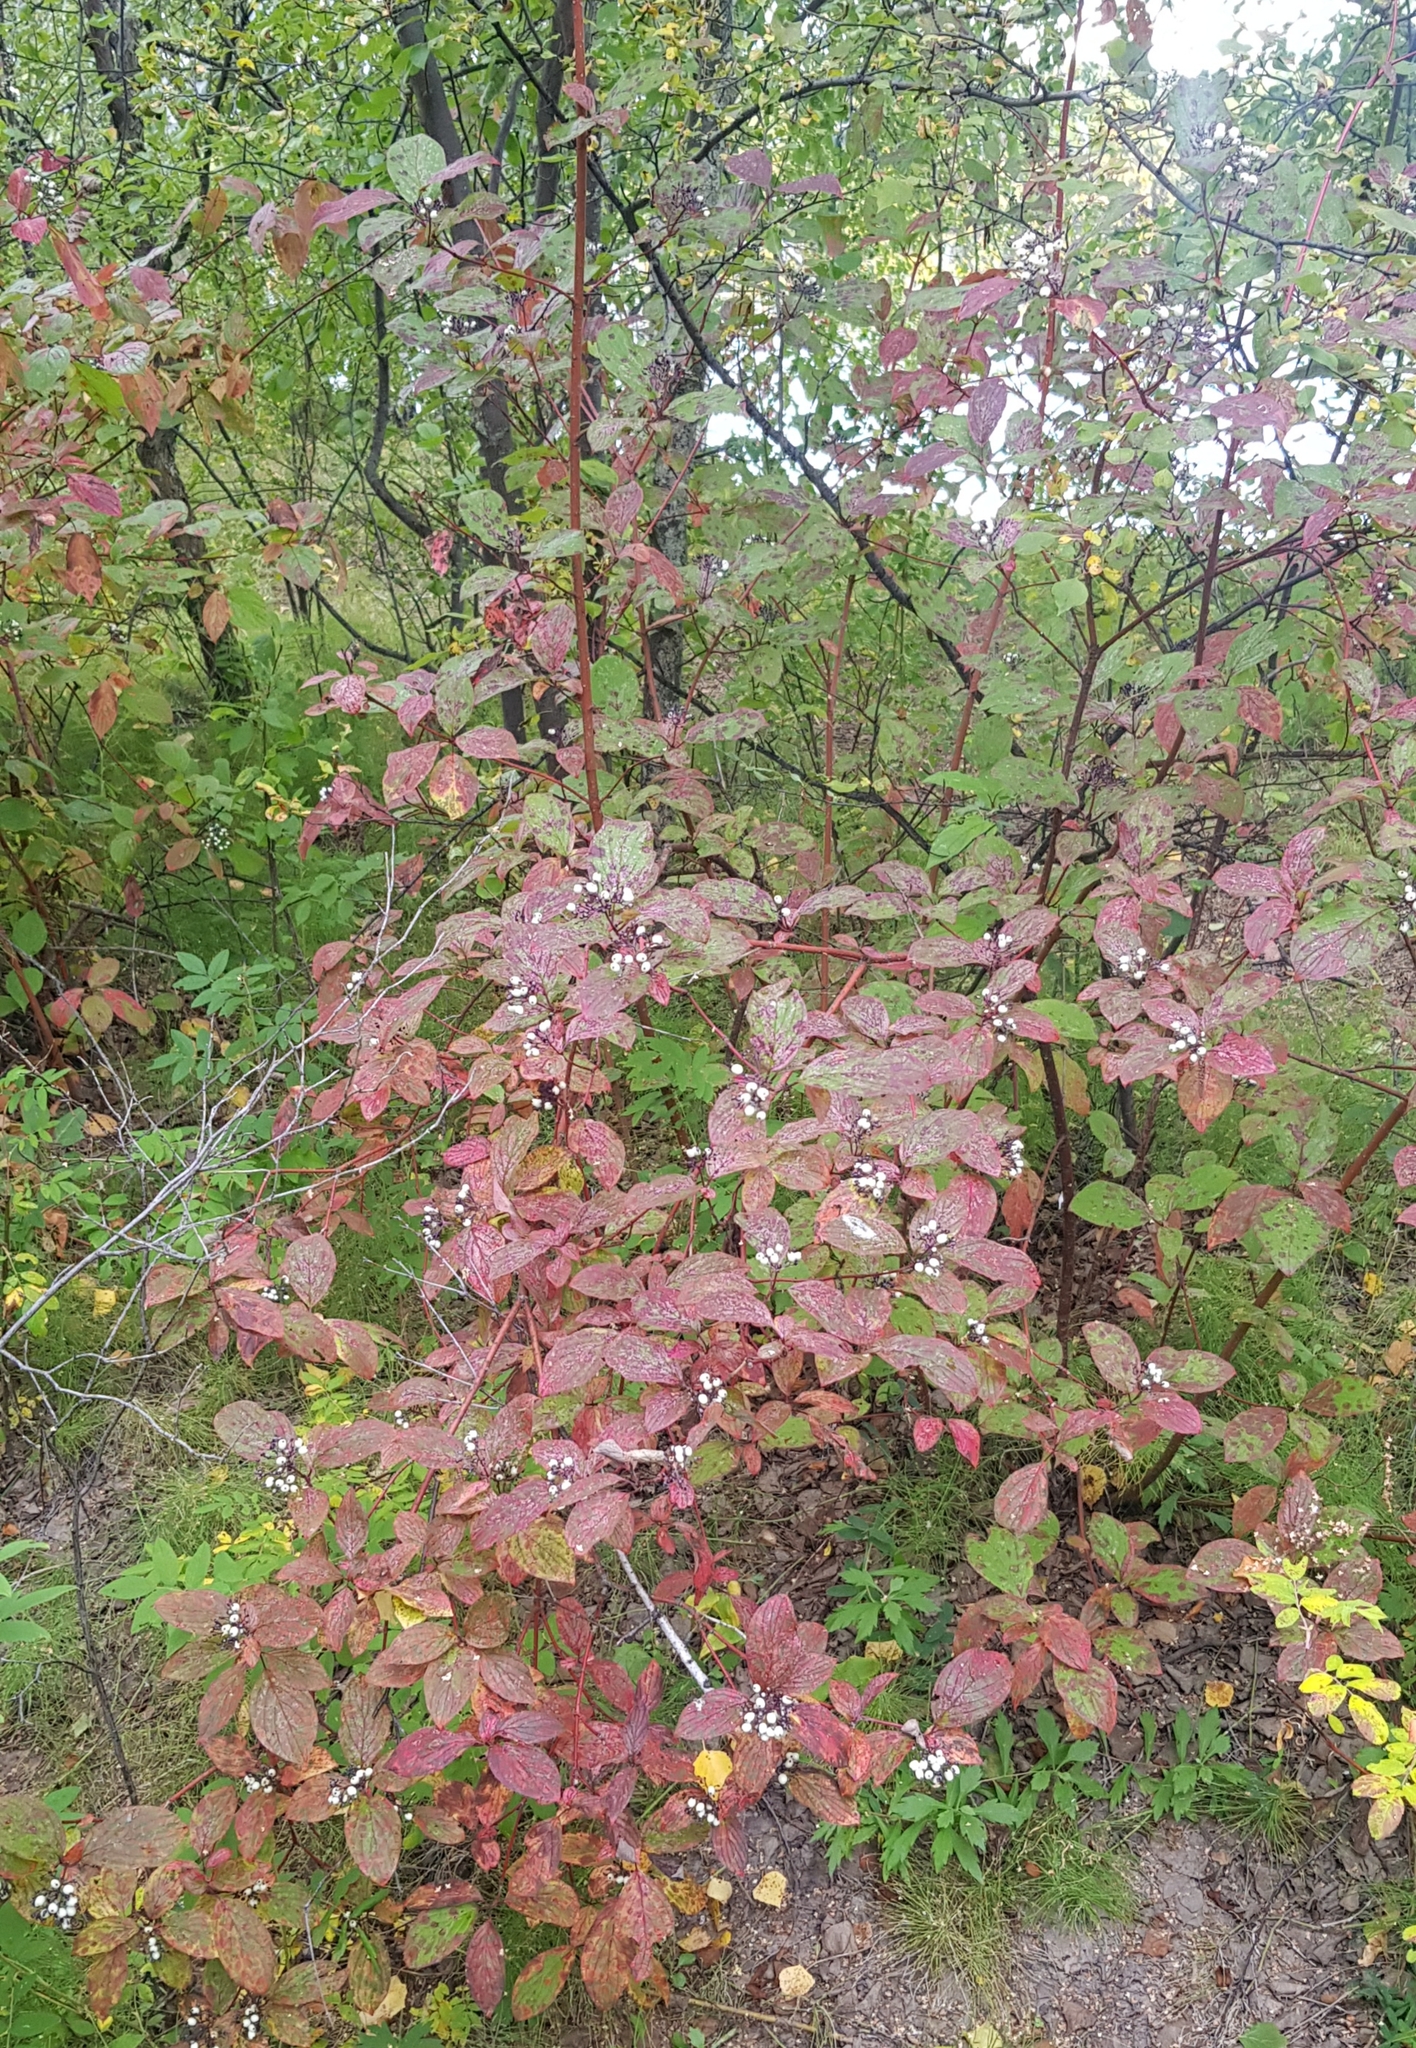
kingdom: Plantae
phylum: Tracheophyta
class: Magnoliopsida
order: Cornales
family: Cornaceae
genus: Cornus
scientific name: Cornus alba
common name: White dogwood
